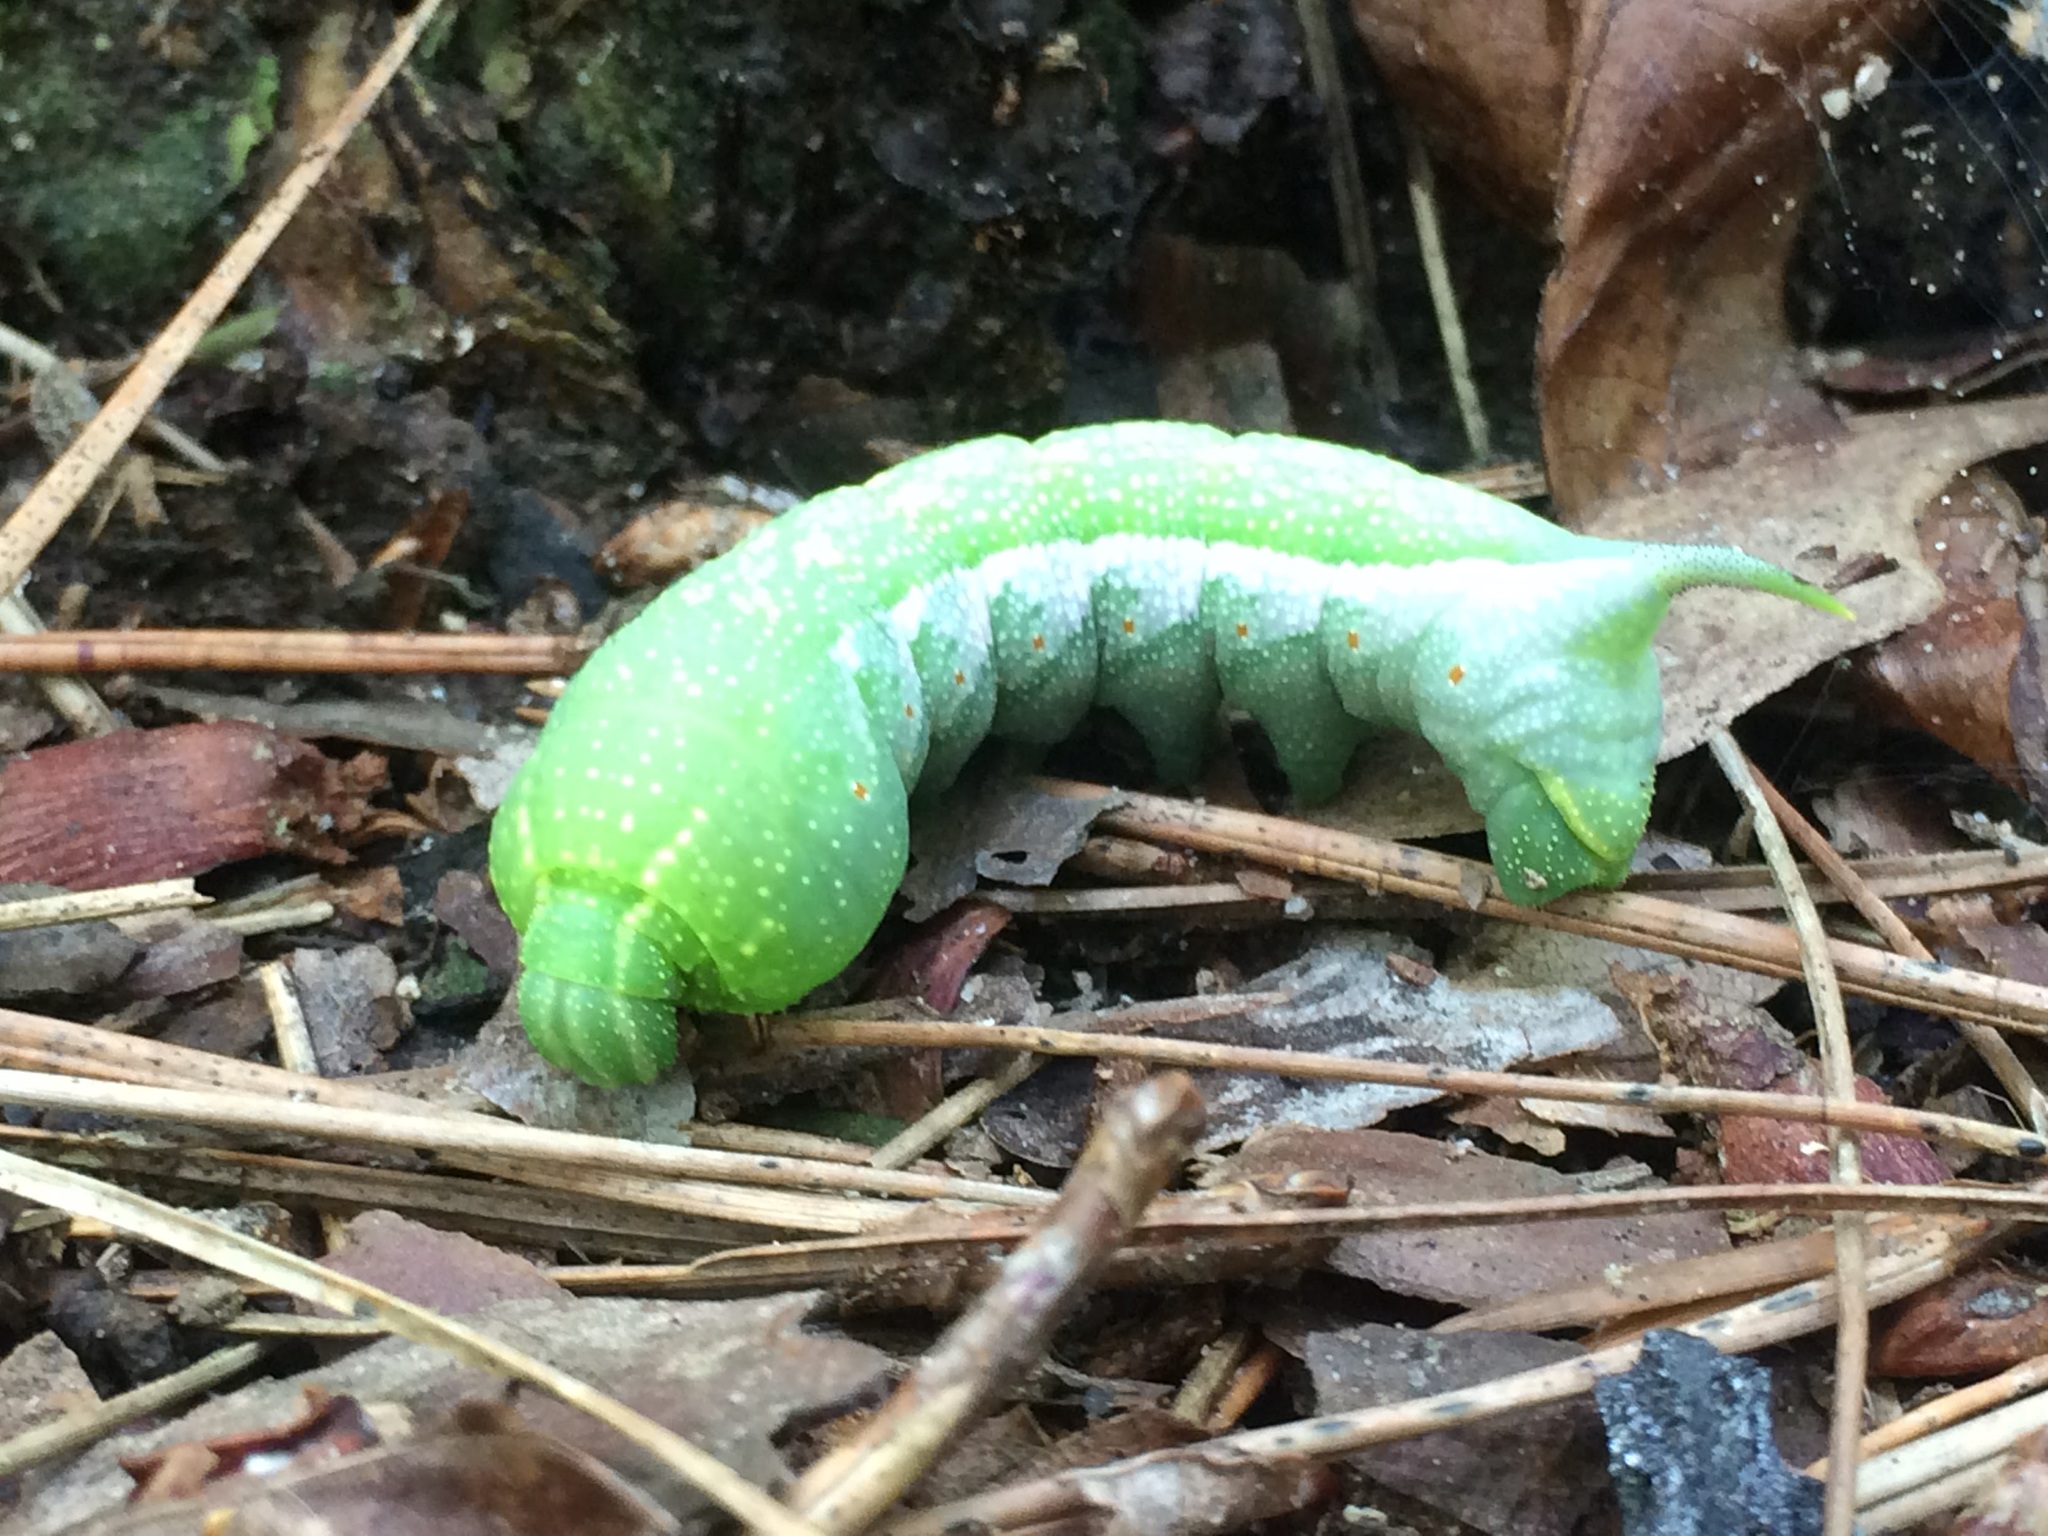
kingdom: Animalia
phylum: Arthropoda
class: Insecta
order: Lepidoptera
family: Sphingidae
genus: Darapsa
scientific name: Darapsa myron
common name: Hog sphinx
